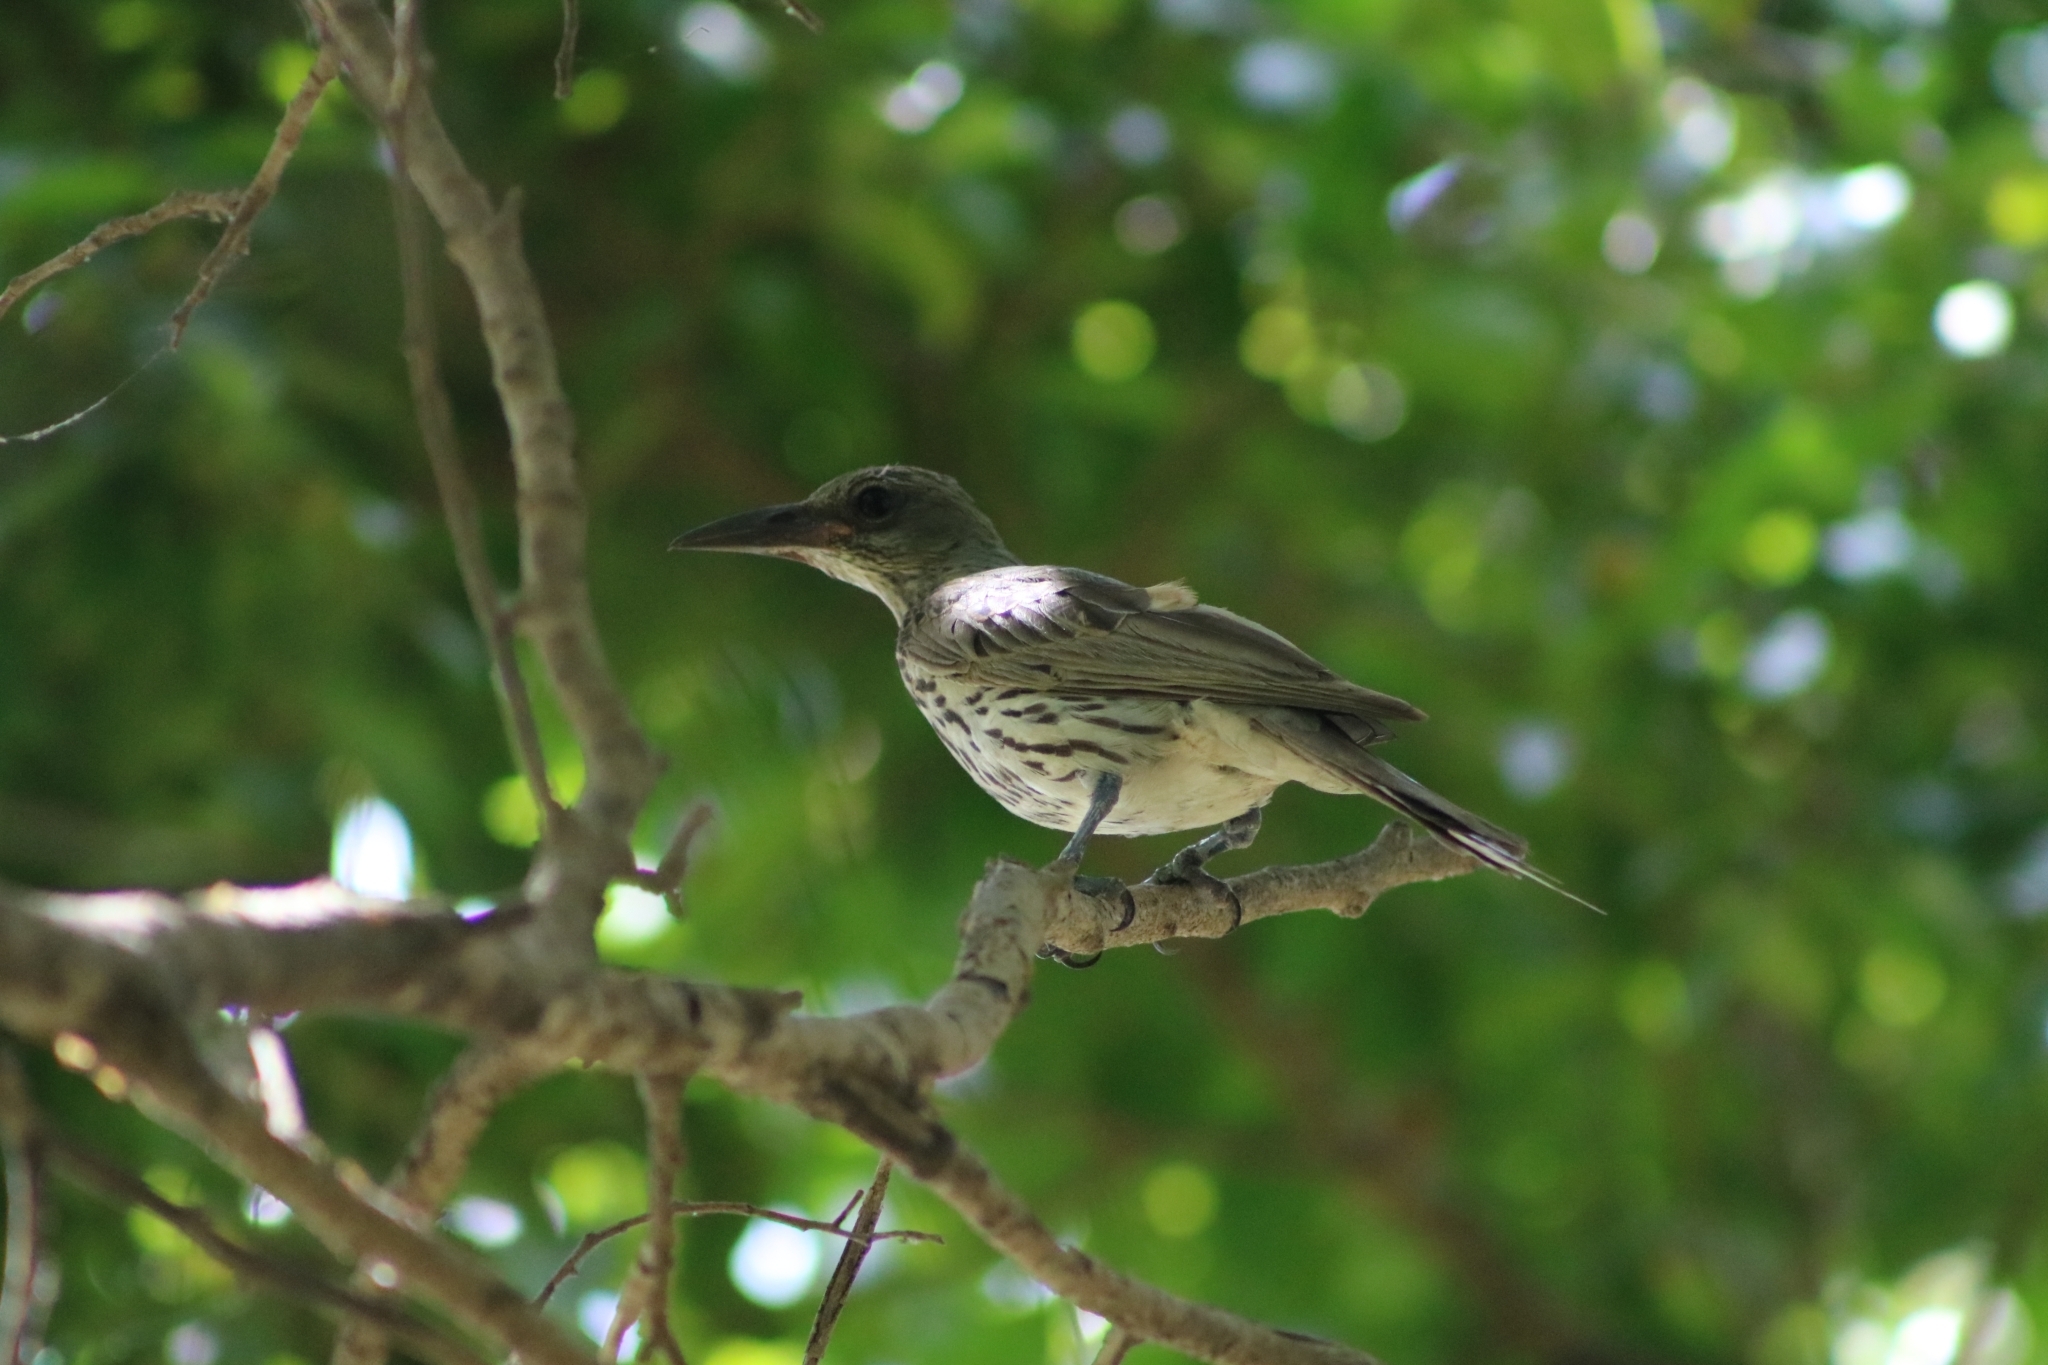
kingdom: Animalia
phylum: Chordata
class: Aves
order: Passeriformes
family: Oriolidae
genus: Oriolus
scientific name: Oriolus sagittatus
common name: Olive-backed oriole
